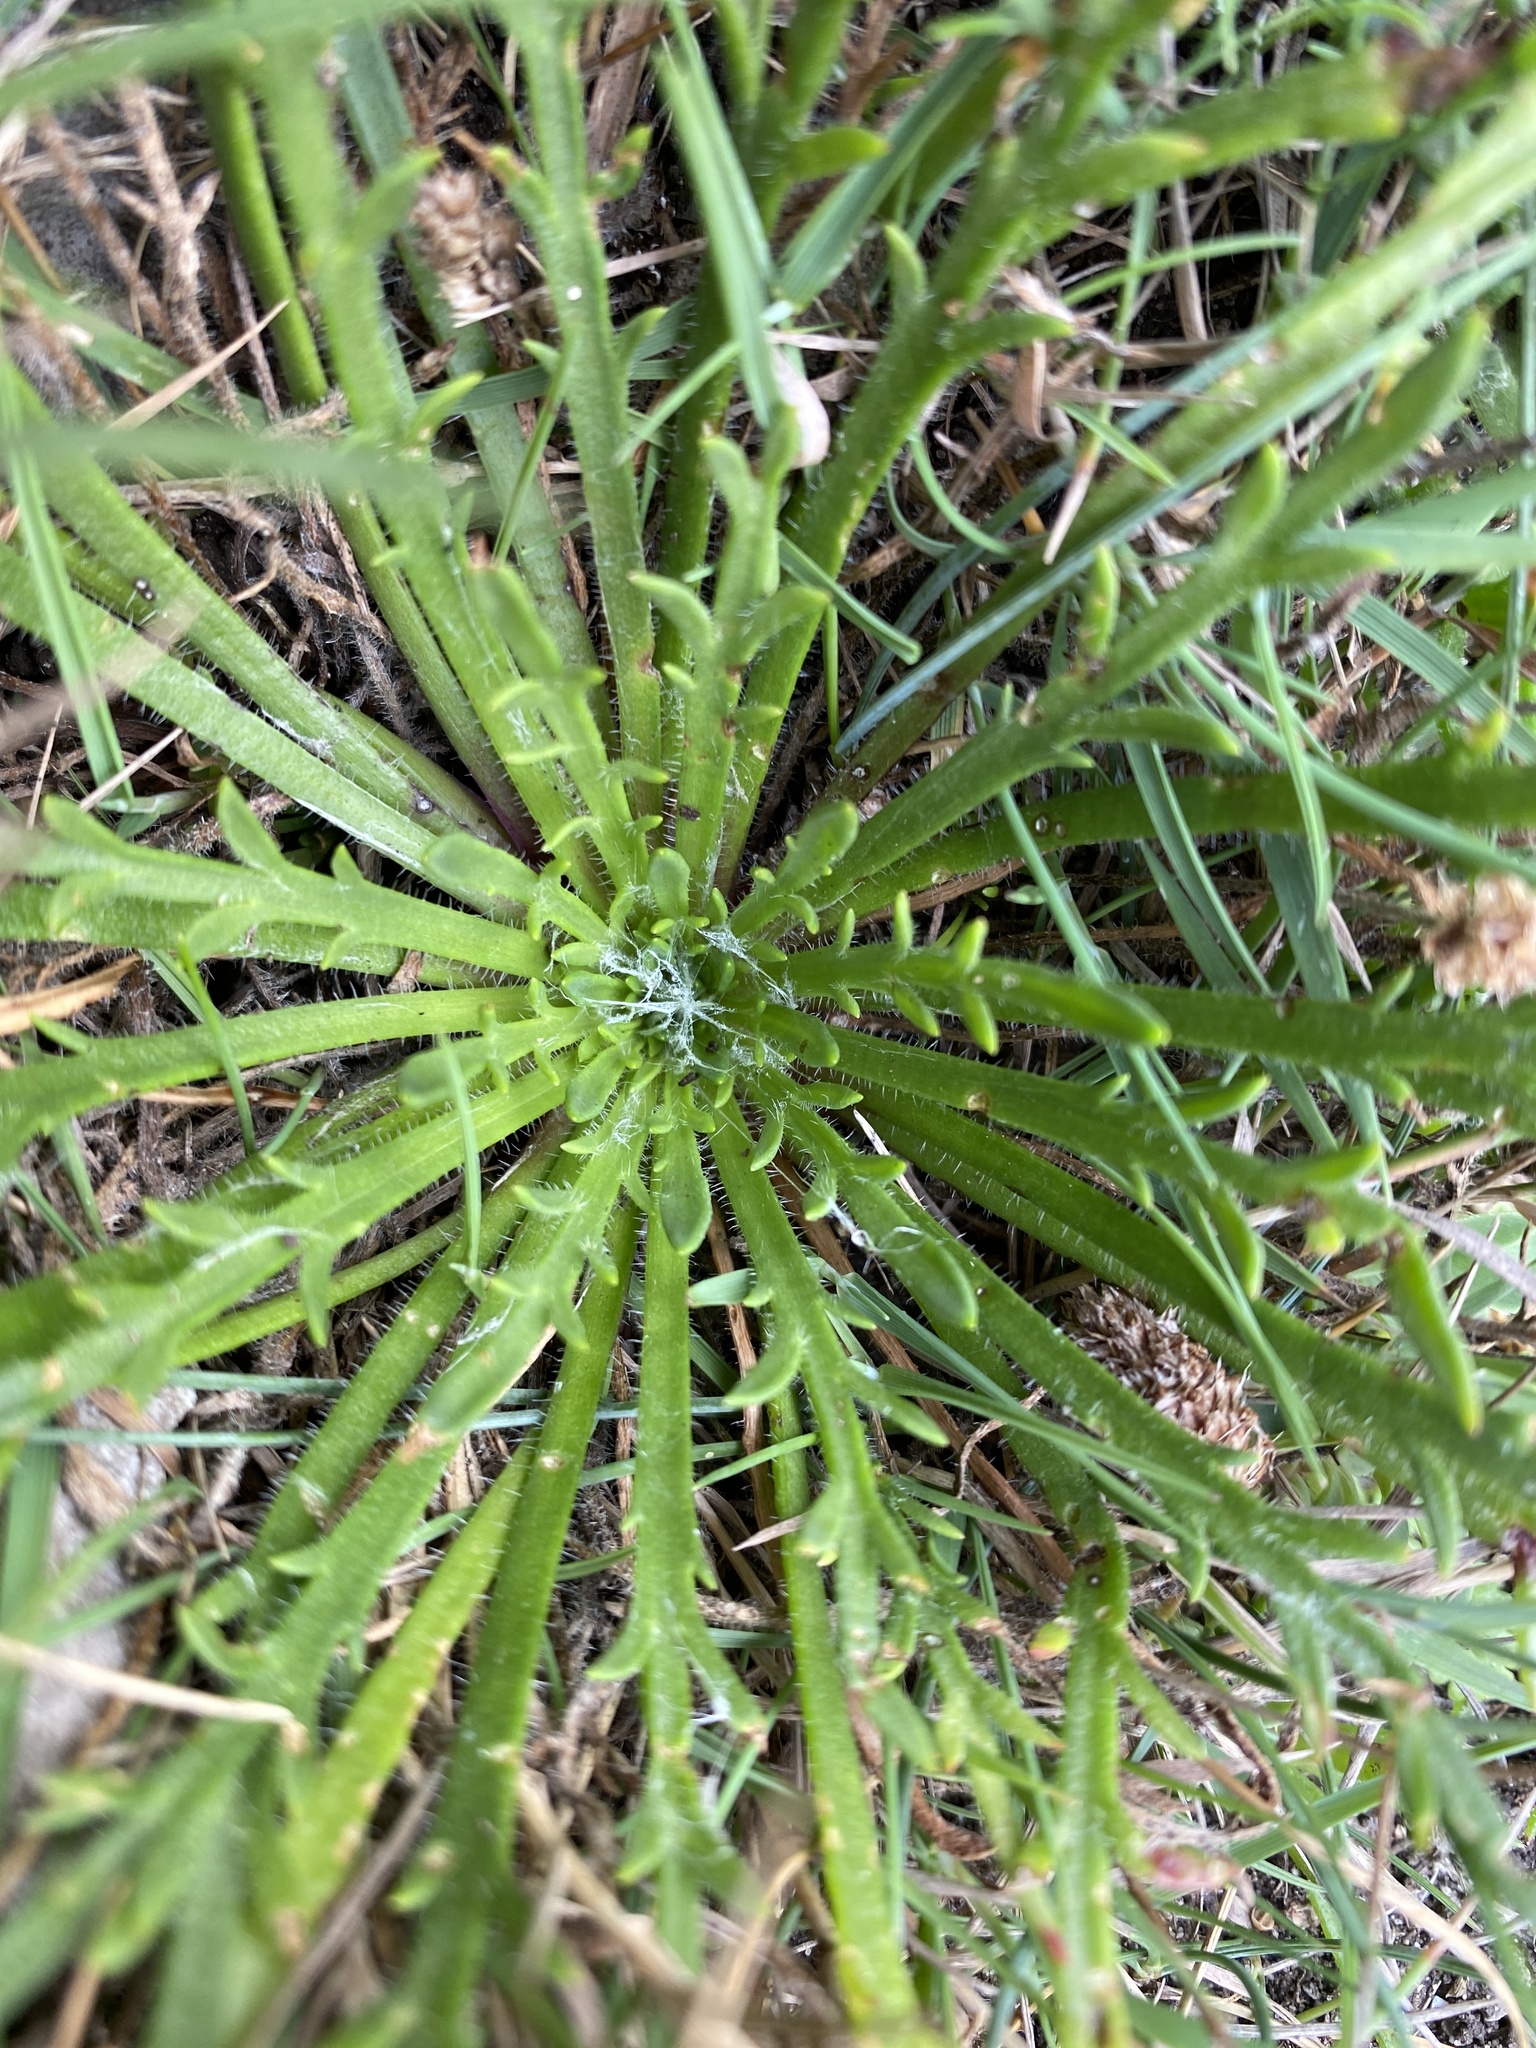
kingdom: Plantae
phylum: Tracheophyta
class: Magnoliopsida
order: Lamiales
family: Plantaginaceae
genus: Plantago
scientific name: Plantago coronopus
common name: Buck's-horn plantain
